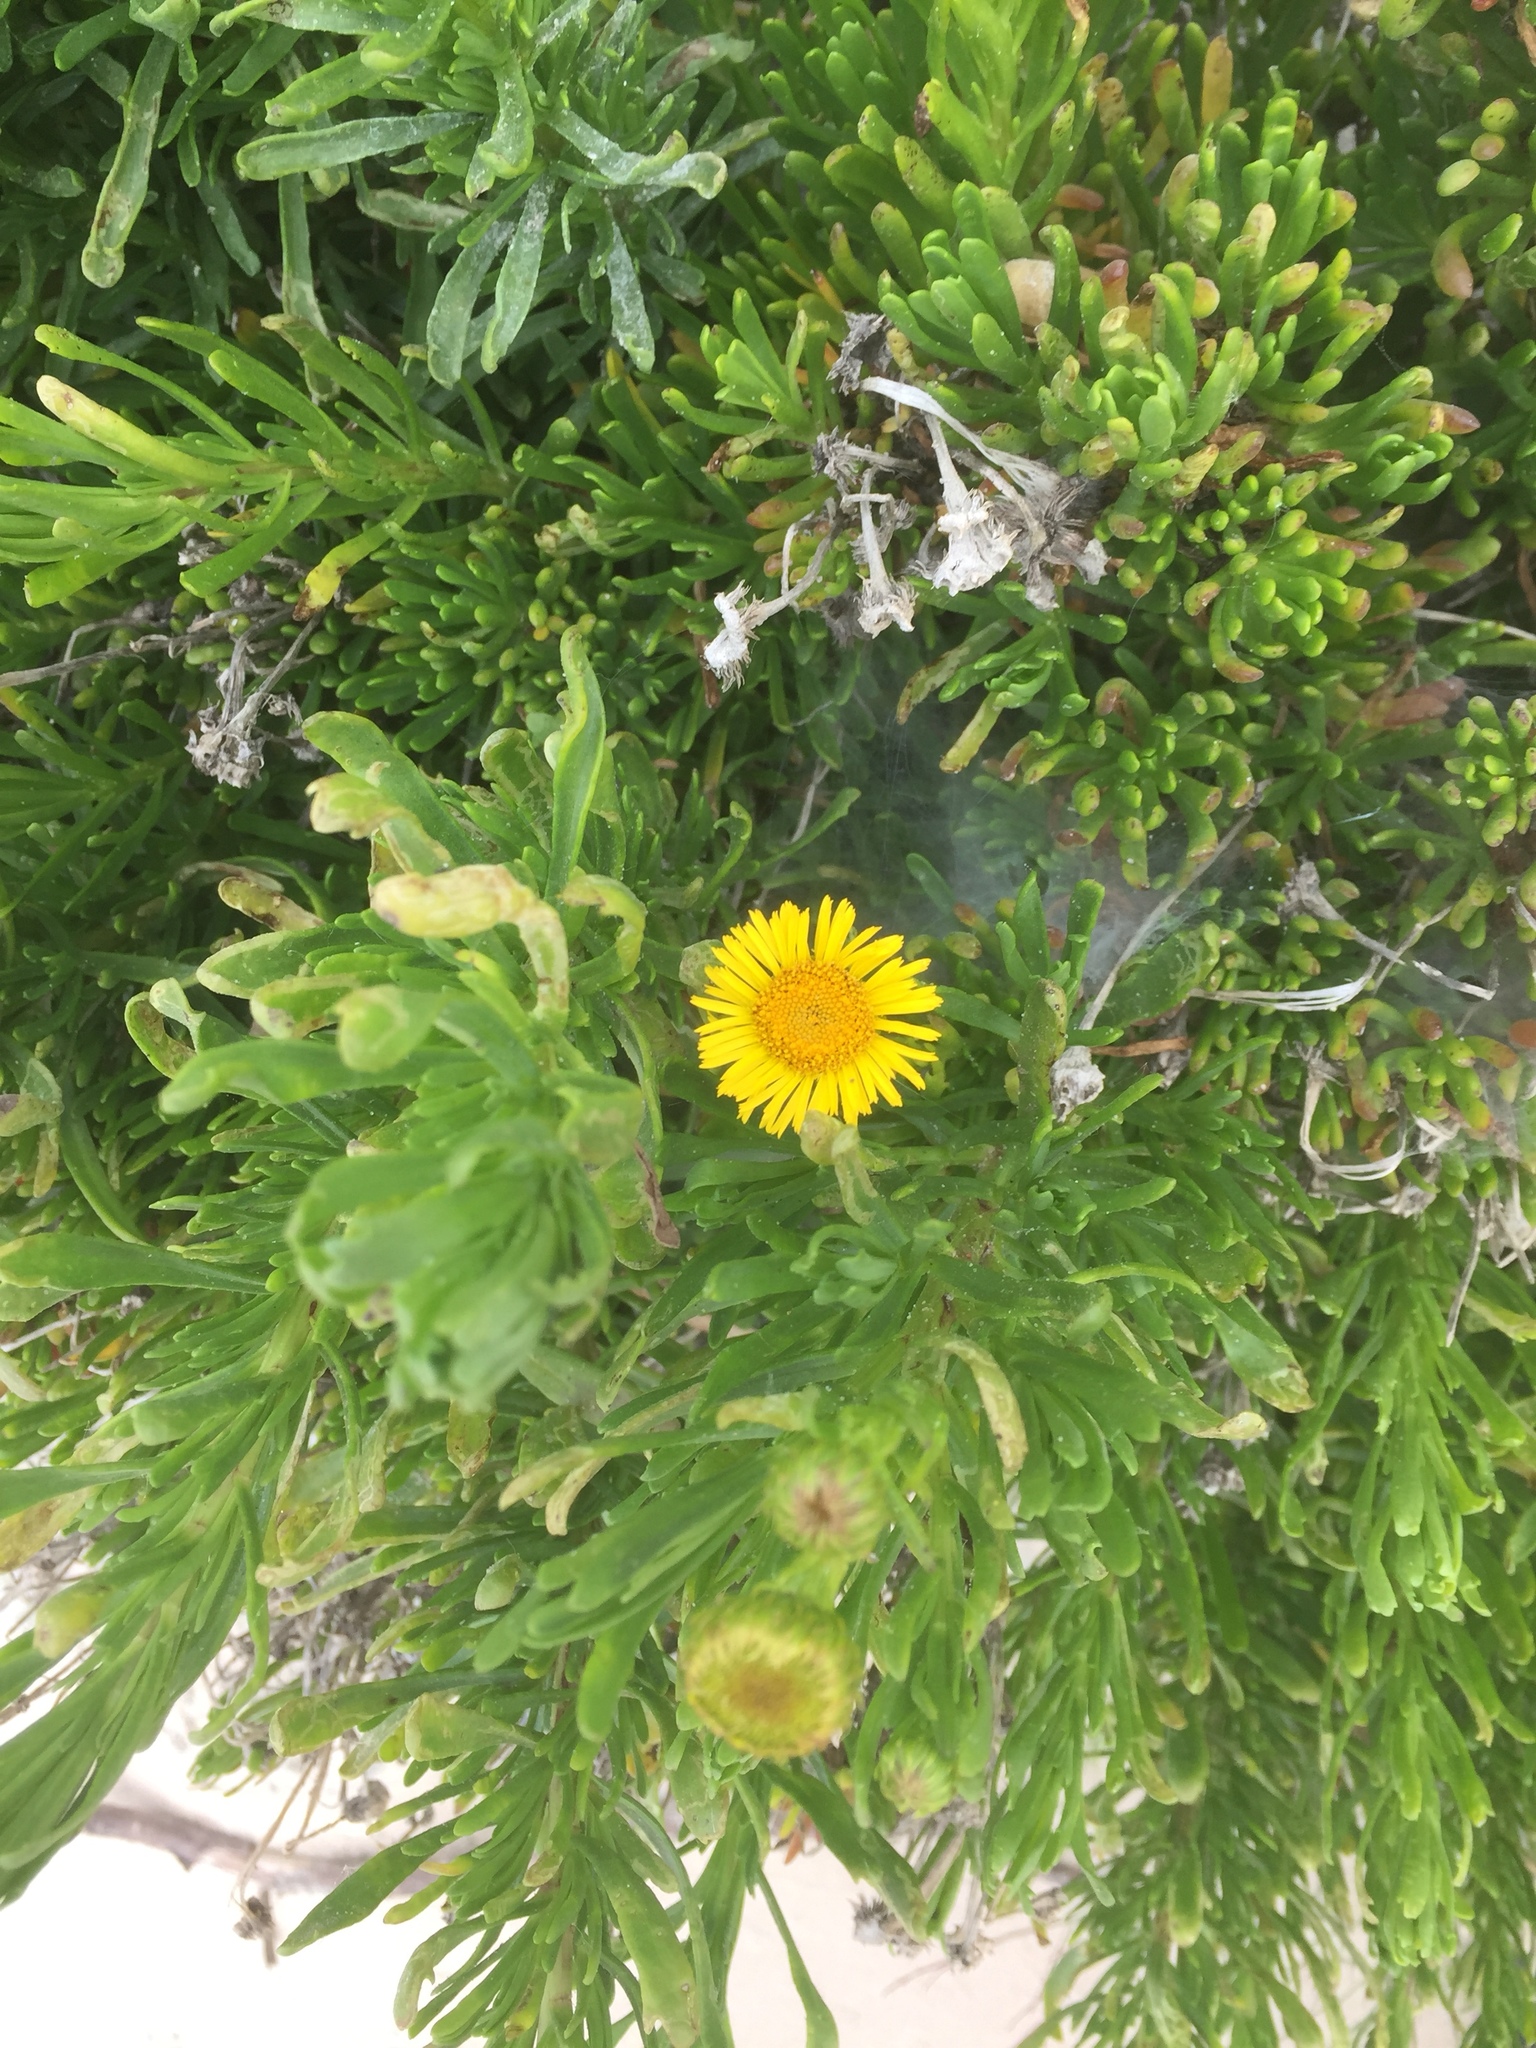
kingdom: Plantae
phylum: Tracheophyta
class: Magnoliopsida
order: Asterales
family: Asteraceae
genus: Limbarda
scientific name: Limbarda crithmoides
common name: Golden samphire
